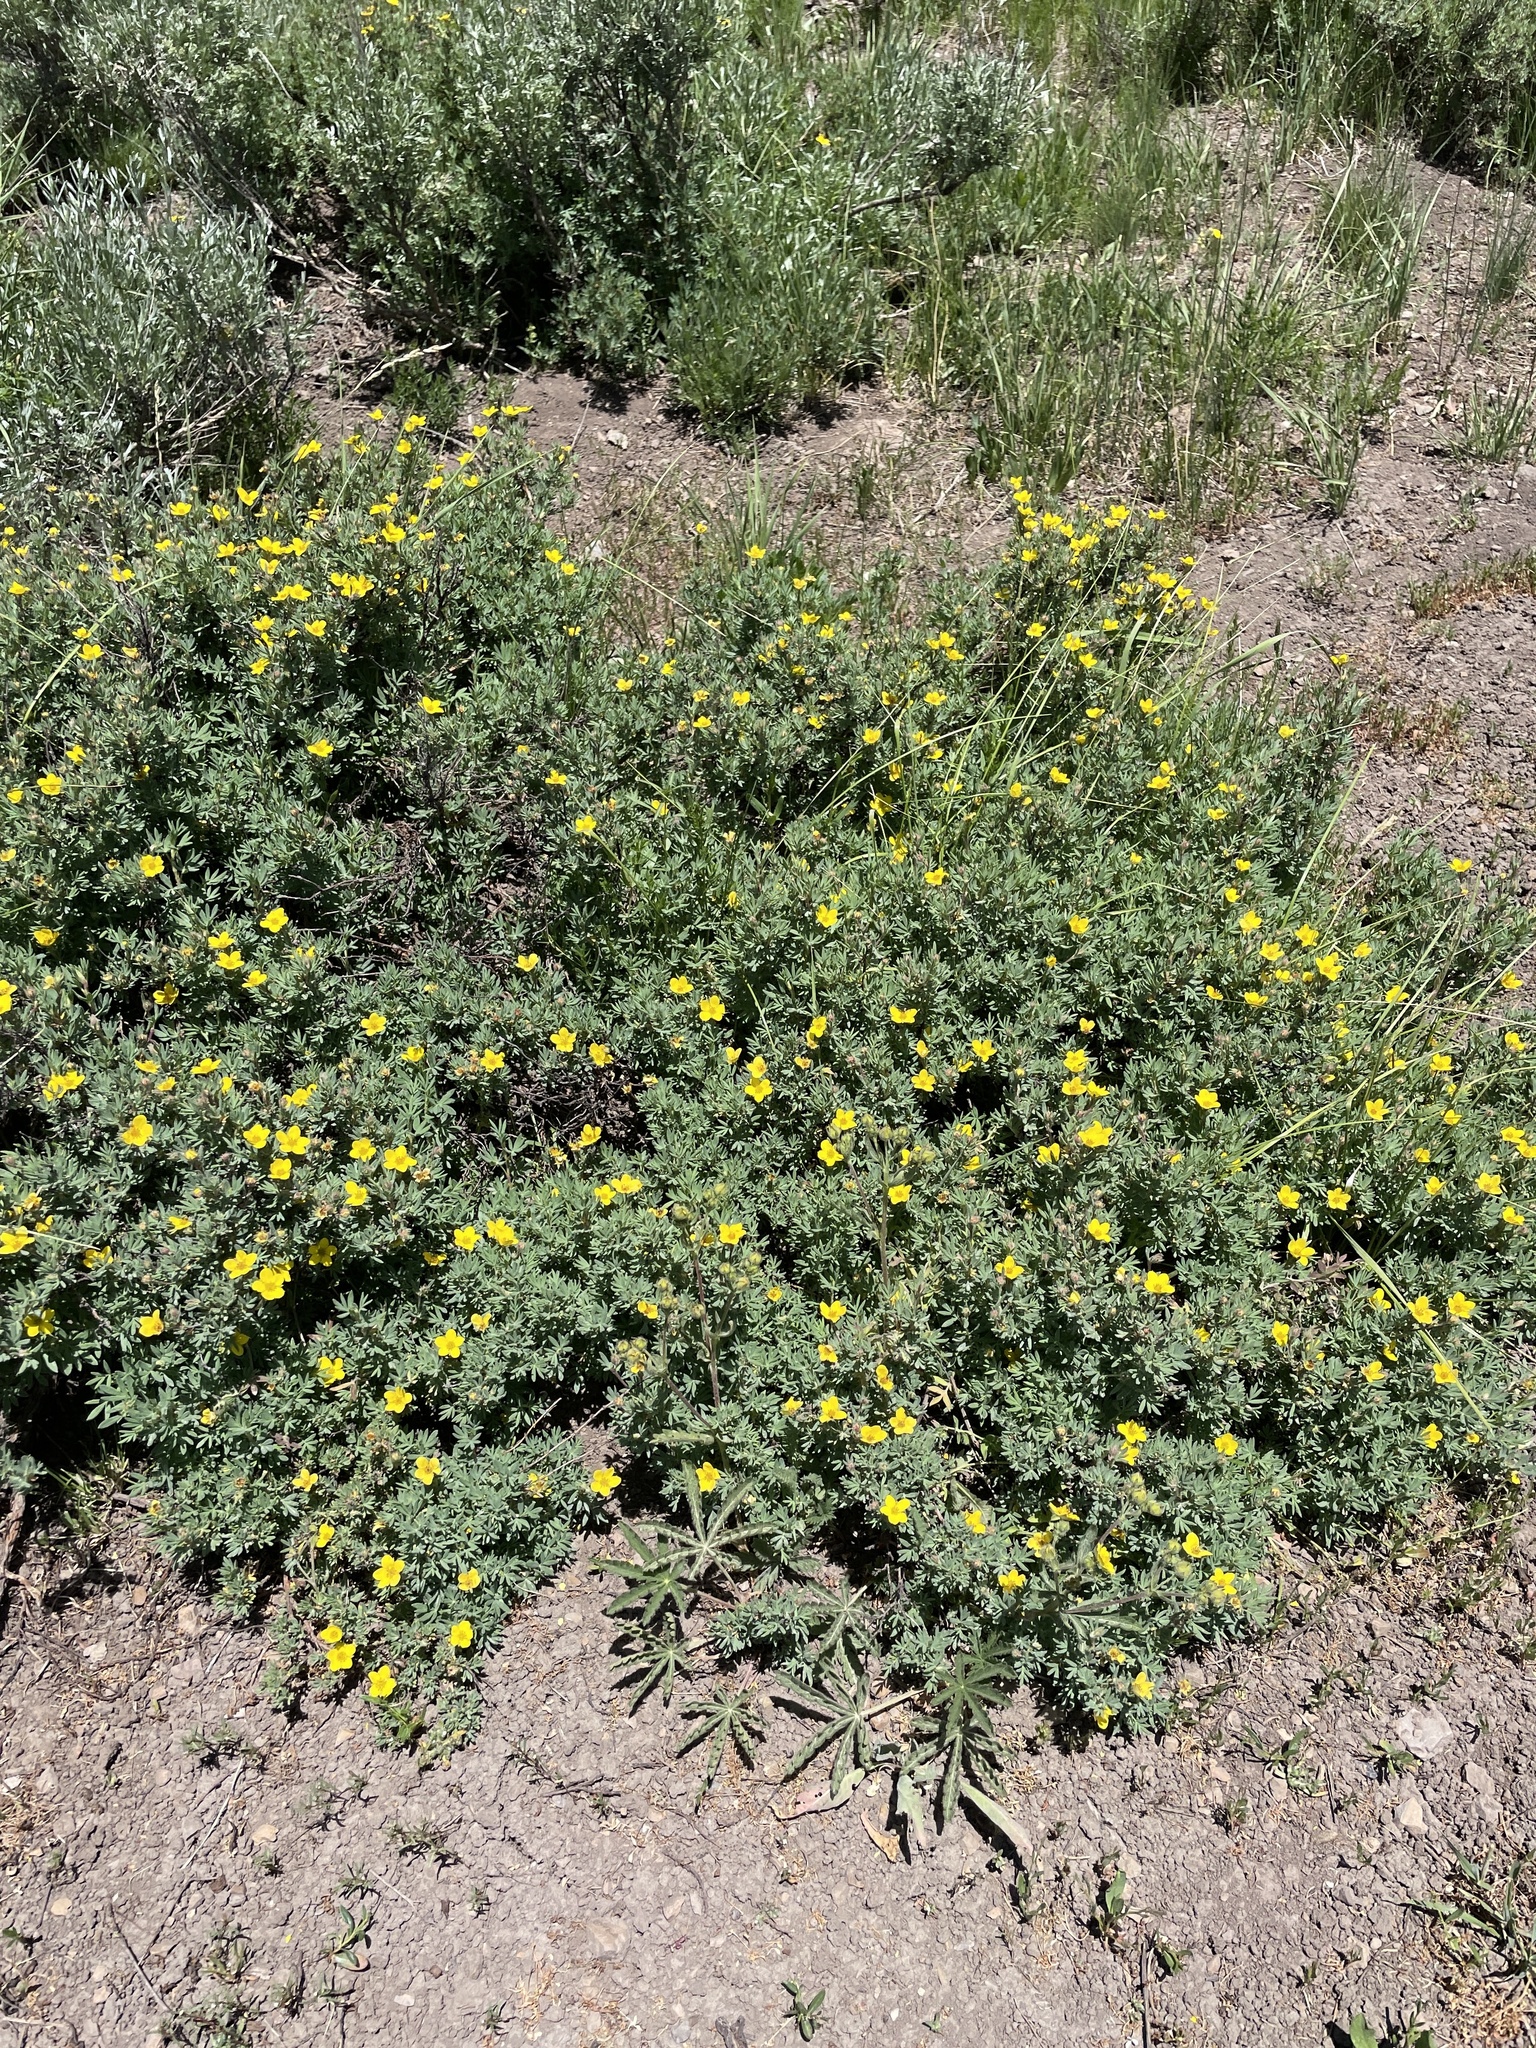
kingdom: Plantae
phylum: Tracheophyta
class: Magnoliopsida
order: Rosales
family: Rosaceae
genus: Dasiphora
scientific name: Dasiphora fruticosa
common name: Shrubby cinquefoil
